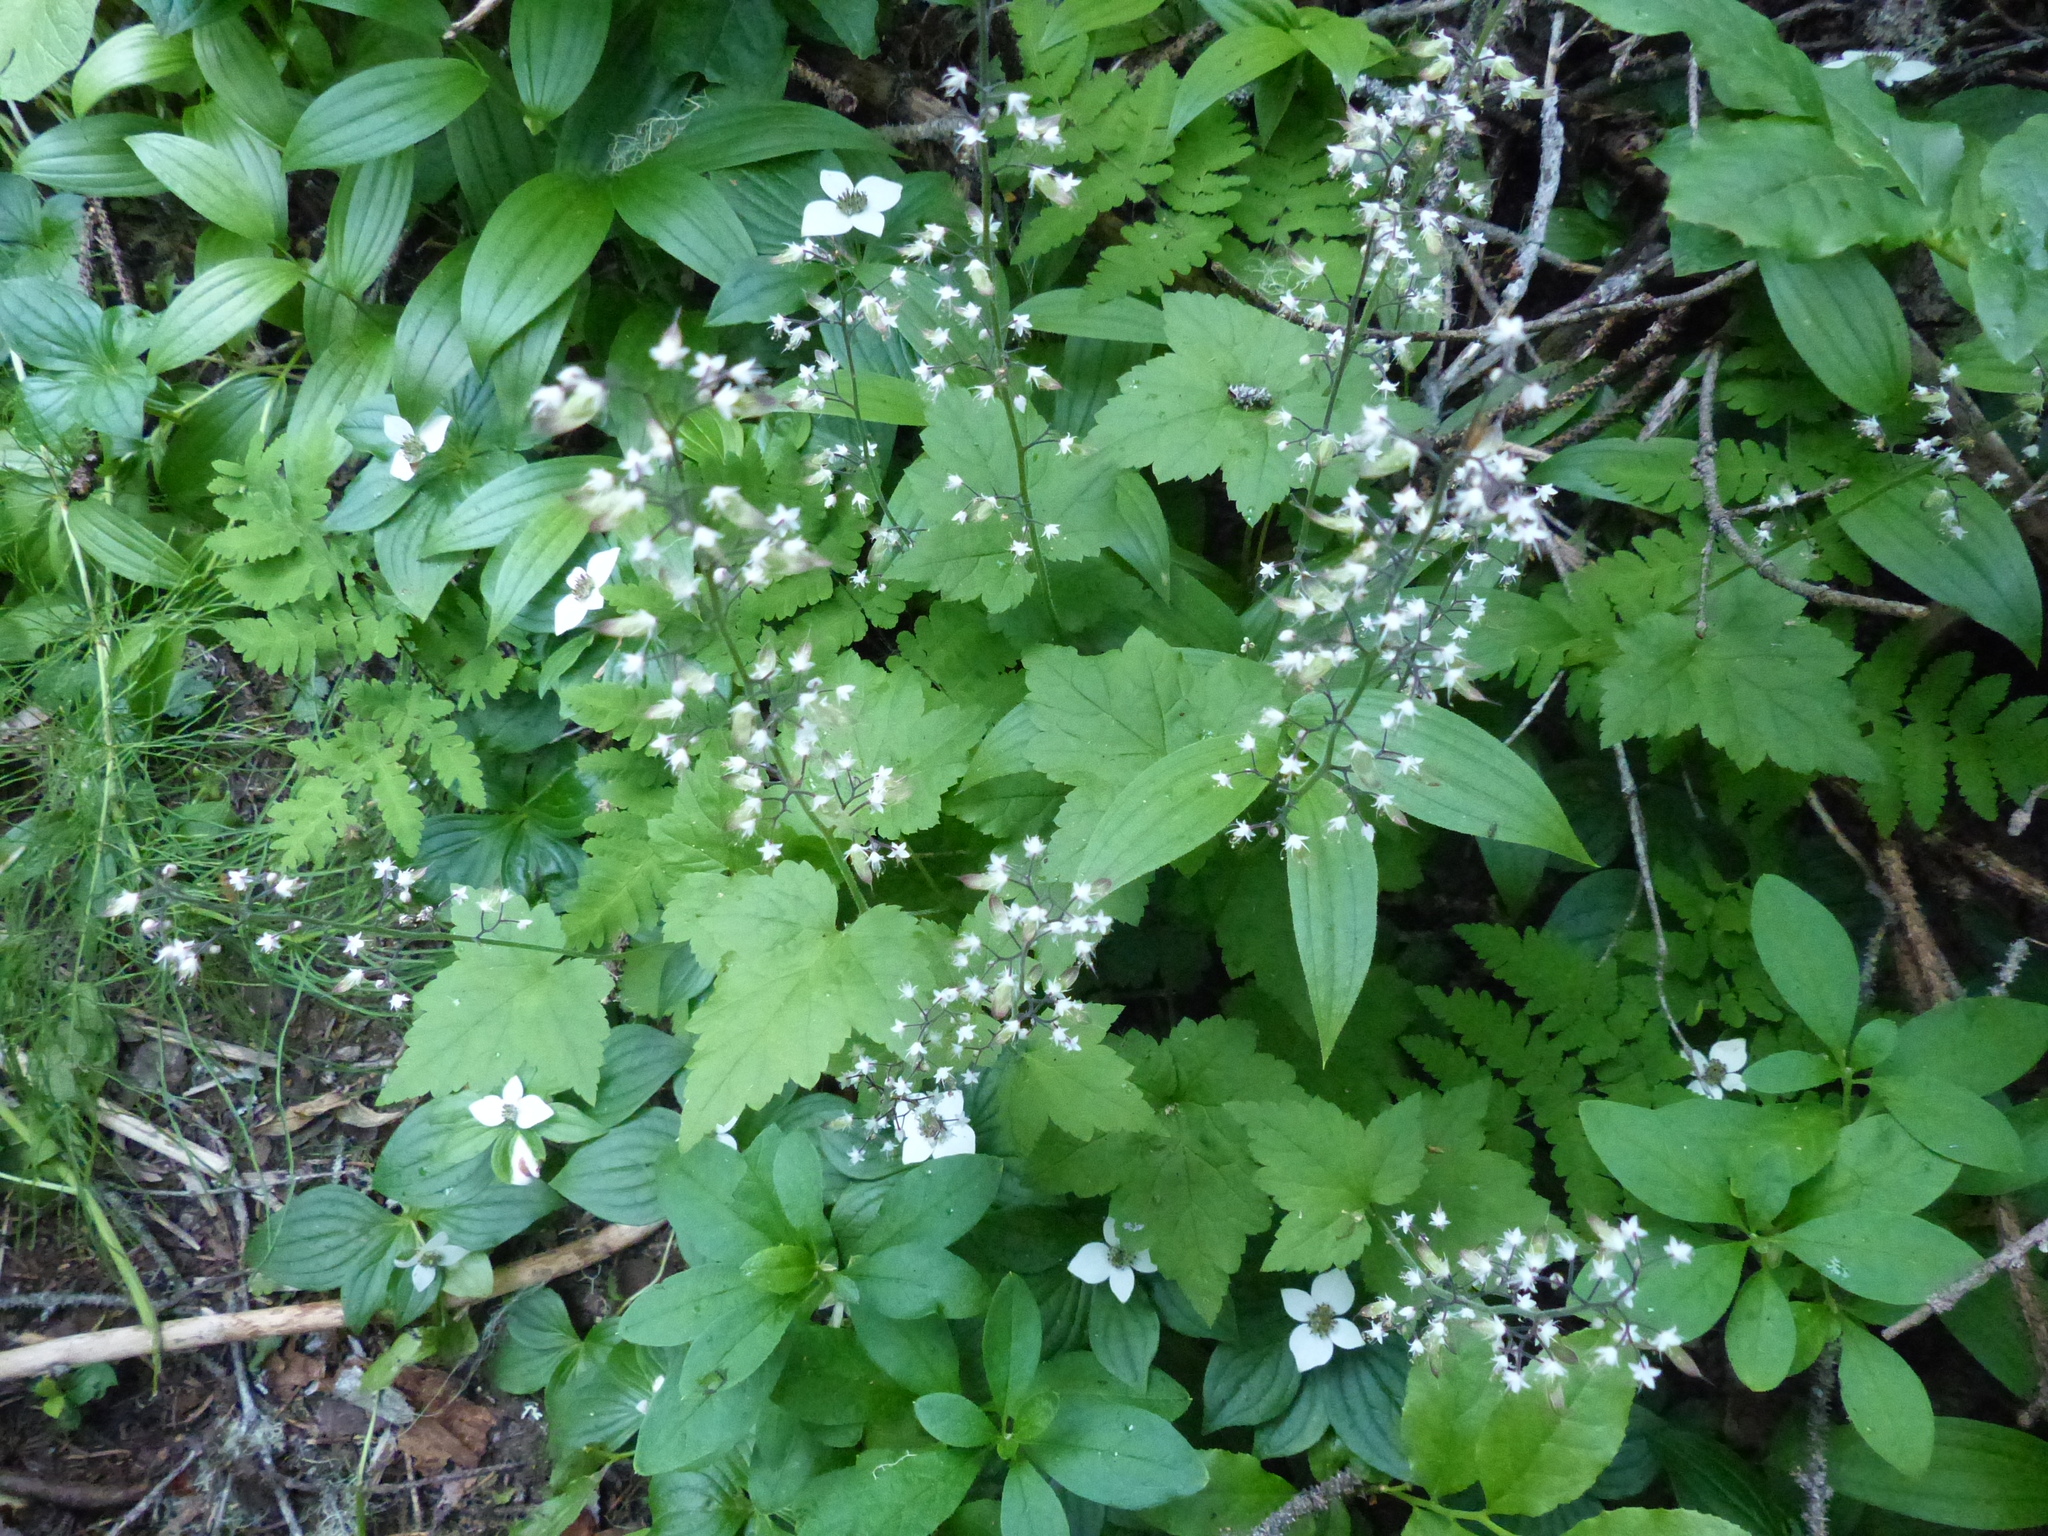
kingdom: Plantae
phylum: Tracheophyta
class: Magnoliopsida
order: Saxifragales
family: Saxifragaceae
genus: Tiarella
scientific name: Tiarella trifoliata
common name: Sugar-scoop
